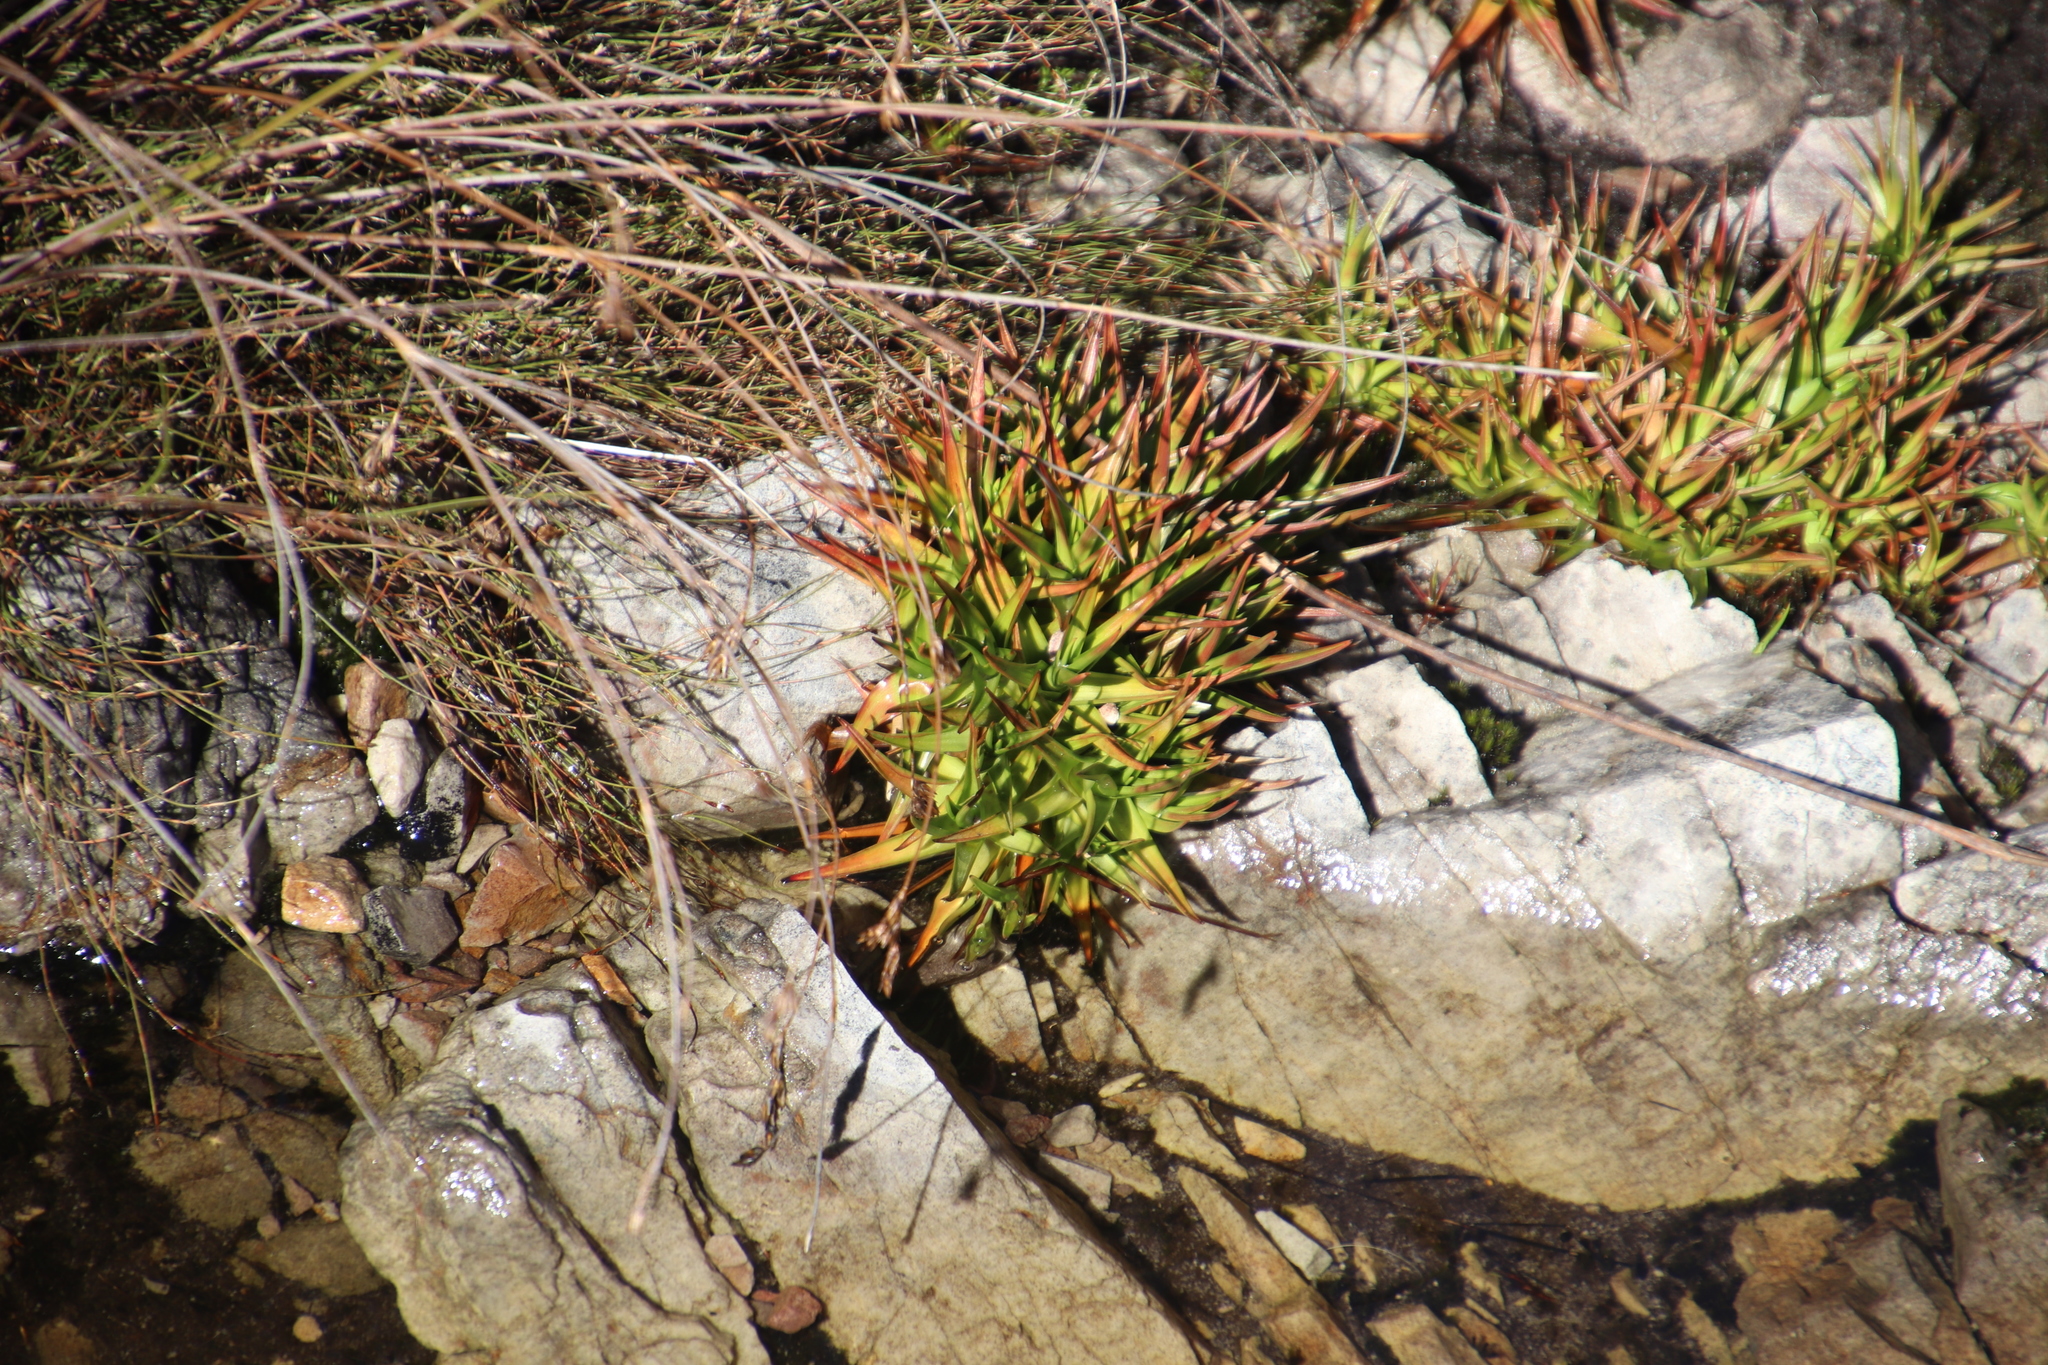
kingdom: Plantae
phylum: Tracheophyta
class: Liliopsida
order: Poales
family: Juncaceae
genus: Juncus
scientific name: Juncus lomatophyllus
